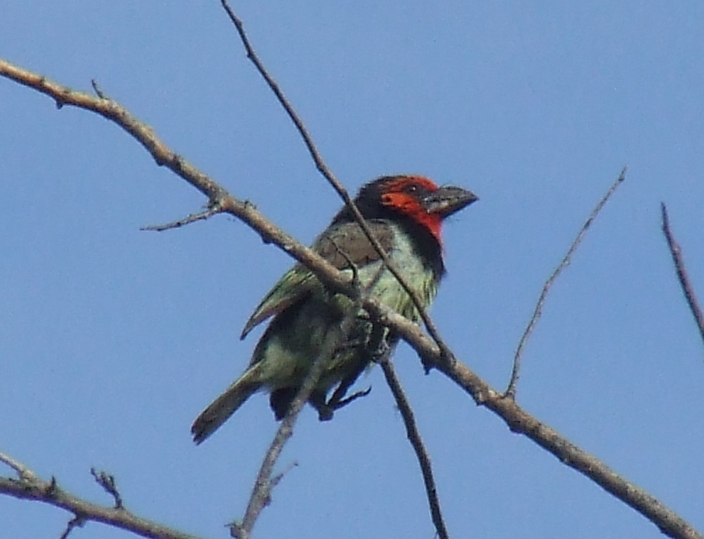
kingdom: Animalia
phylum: Chordata
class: Aves
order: Piciformes
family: Lybiidae
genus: Lybius
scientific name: Lybius torquatus
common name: Black-collared barbet
